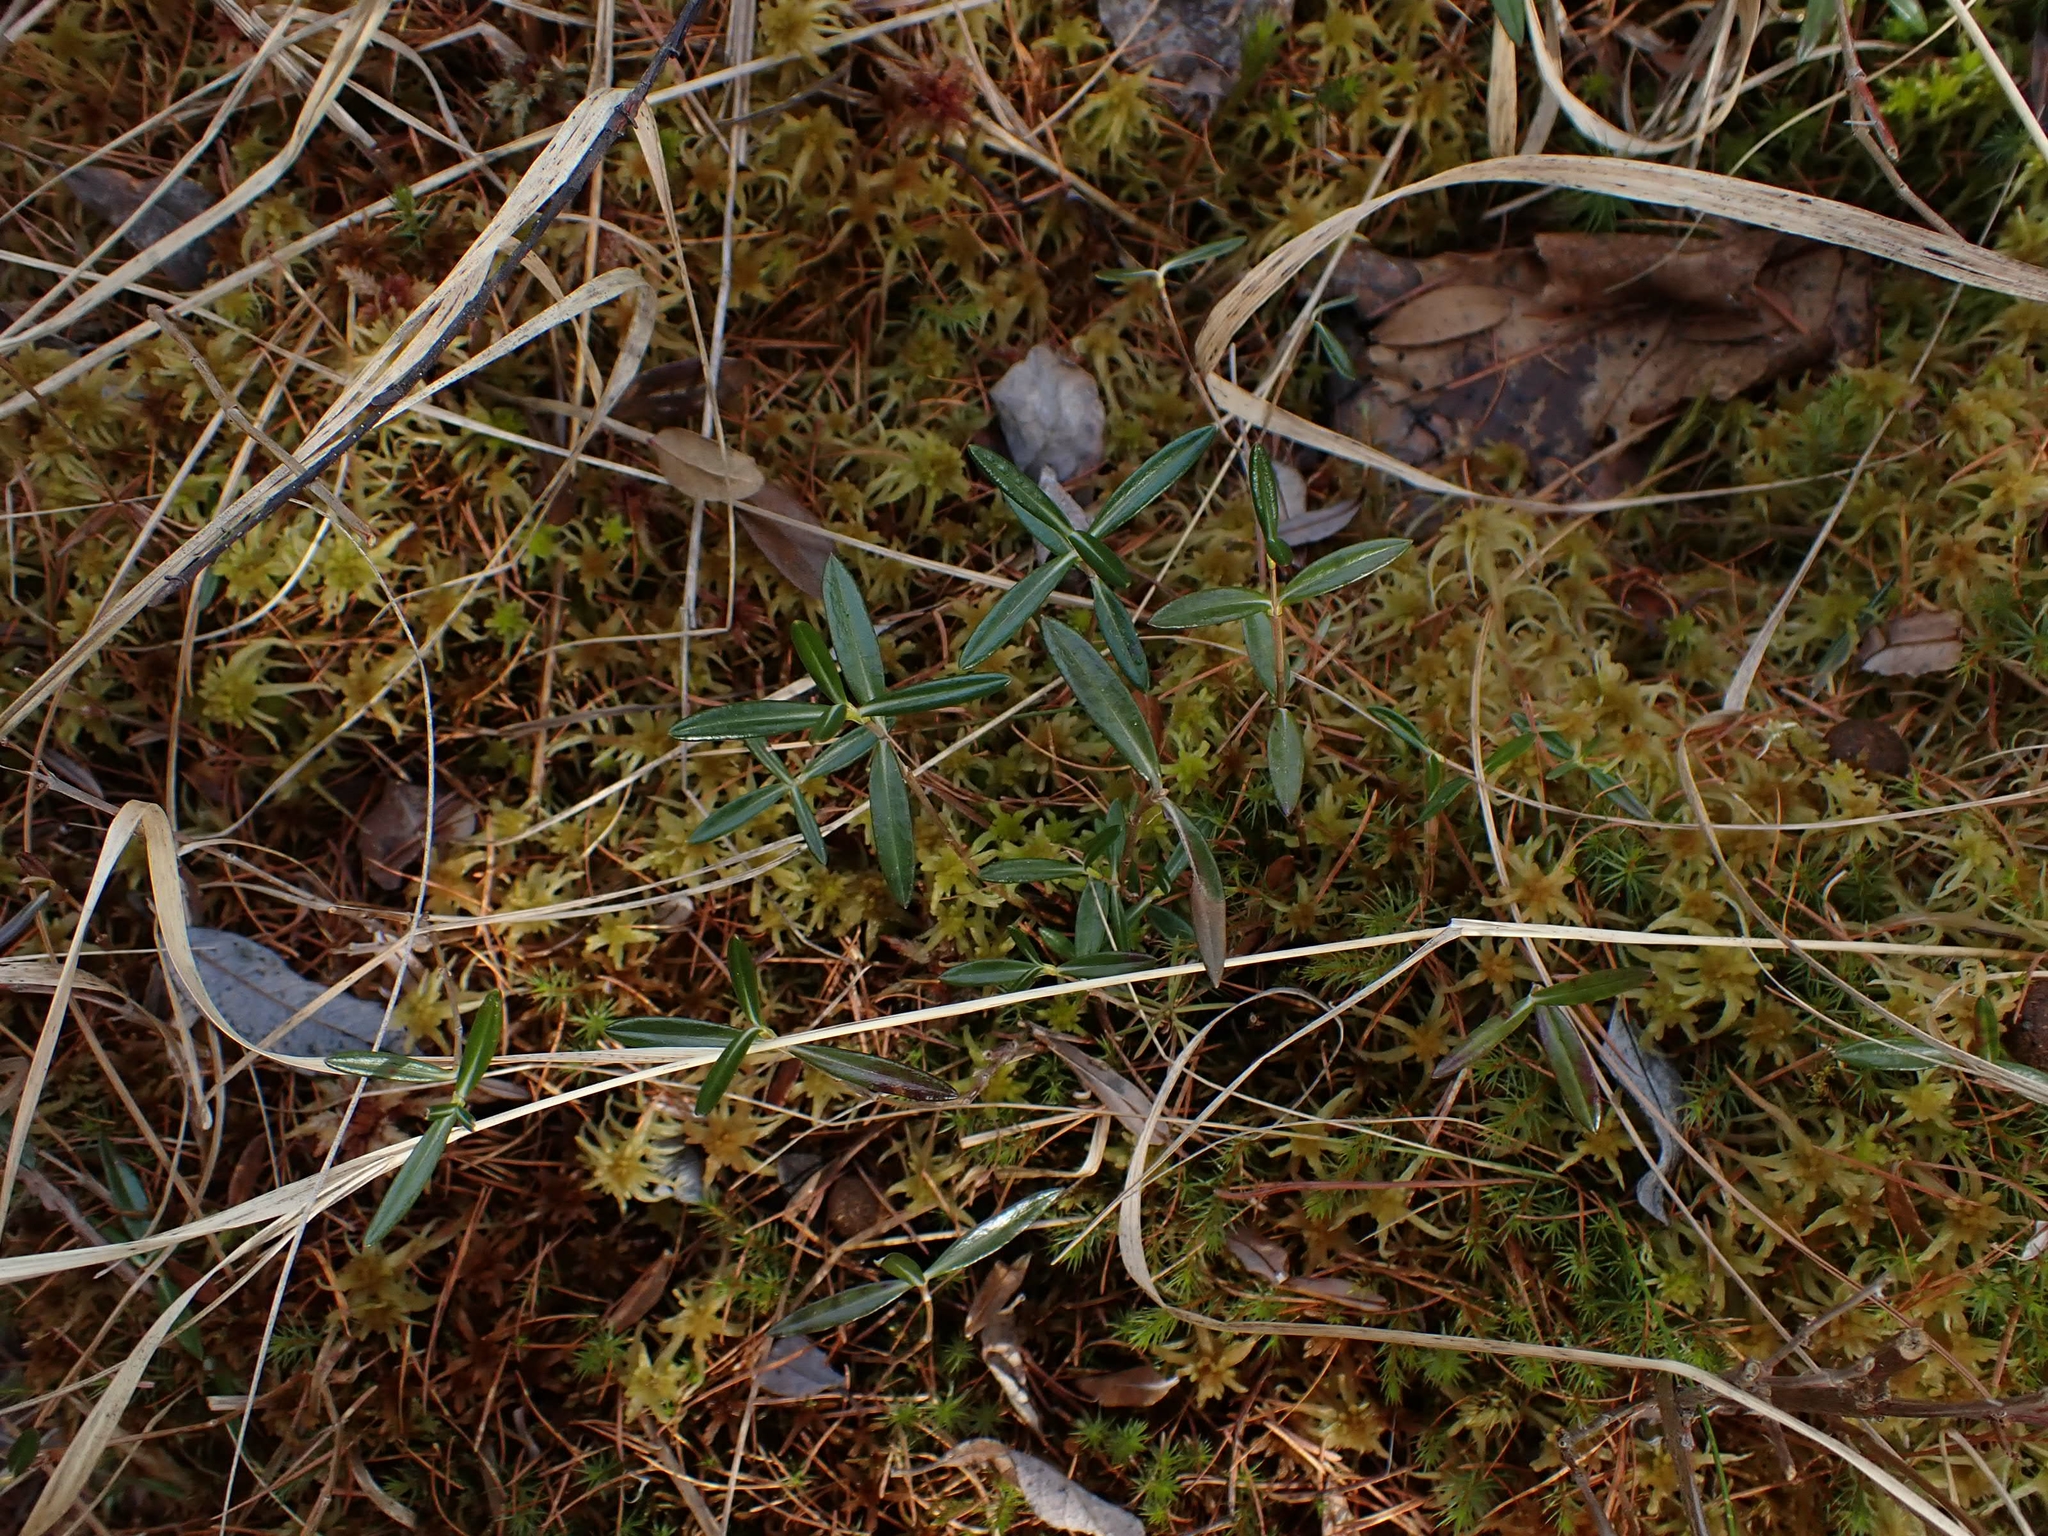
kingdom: Plantae
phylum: Tracheophyta
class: Magnoliopsida
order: Ericales
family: Ericaceae
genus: Andromeda
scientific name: Andromeda polifolia
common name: Bog-rosemary
